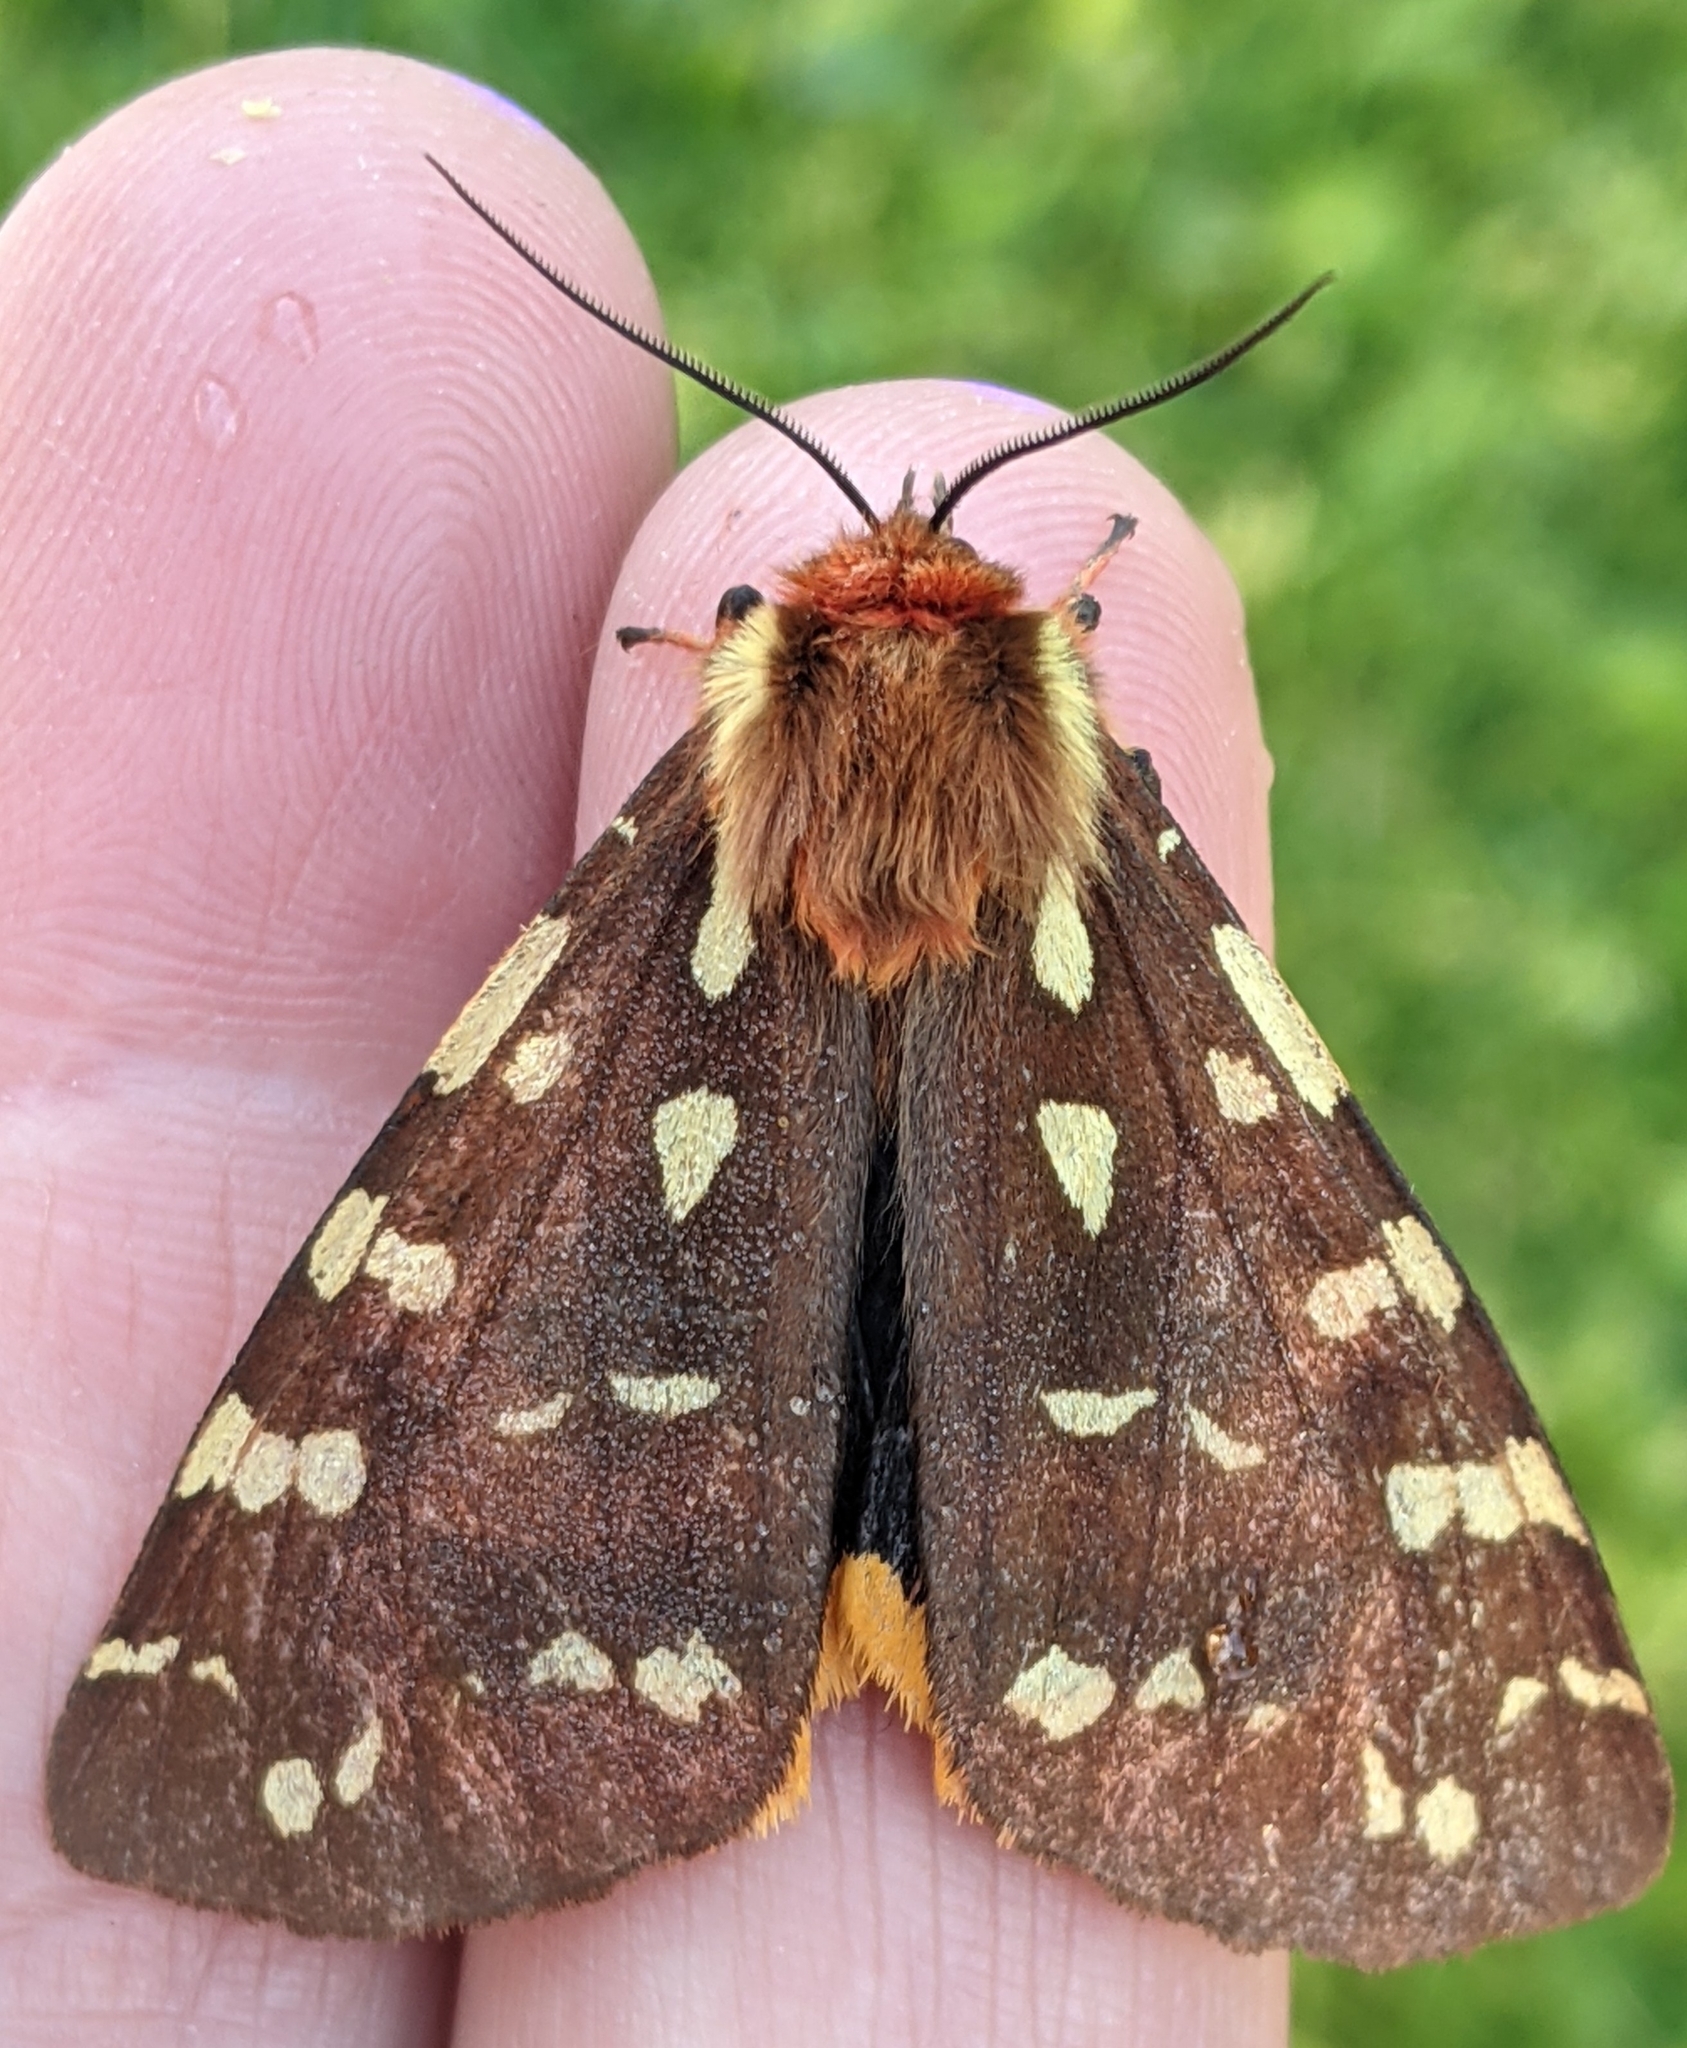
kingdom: Animalia
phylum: Arthropoda
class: Insecta
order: Lepidoptera
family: Erebidae
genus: Arctia
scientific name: Arctia parthenos
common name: St. lawrence tiger moth
